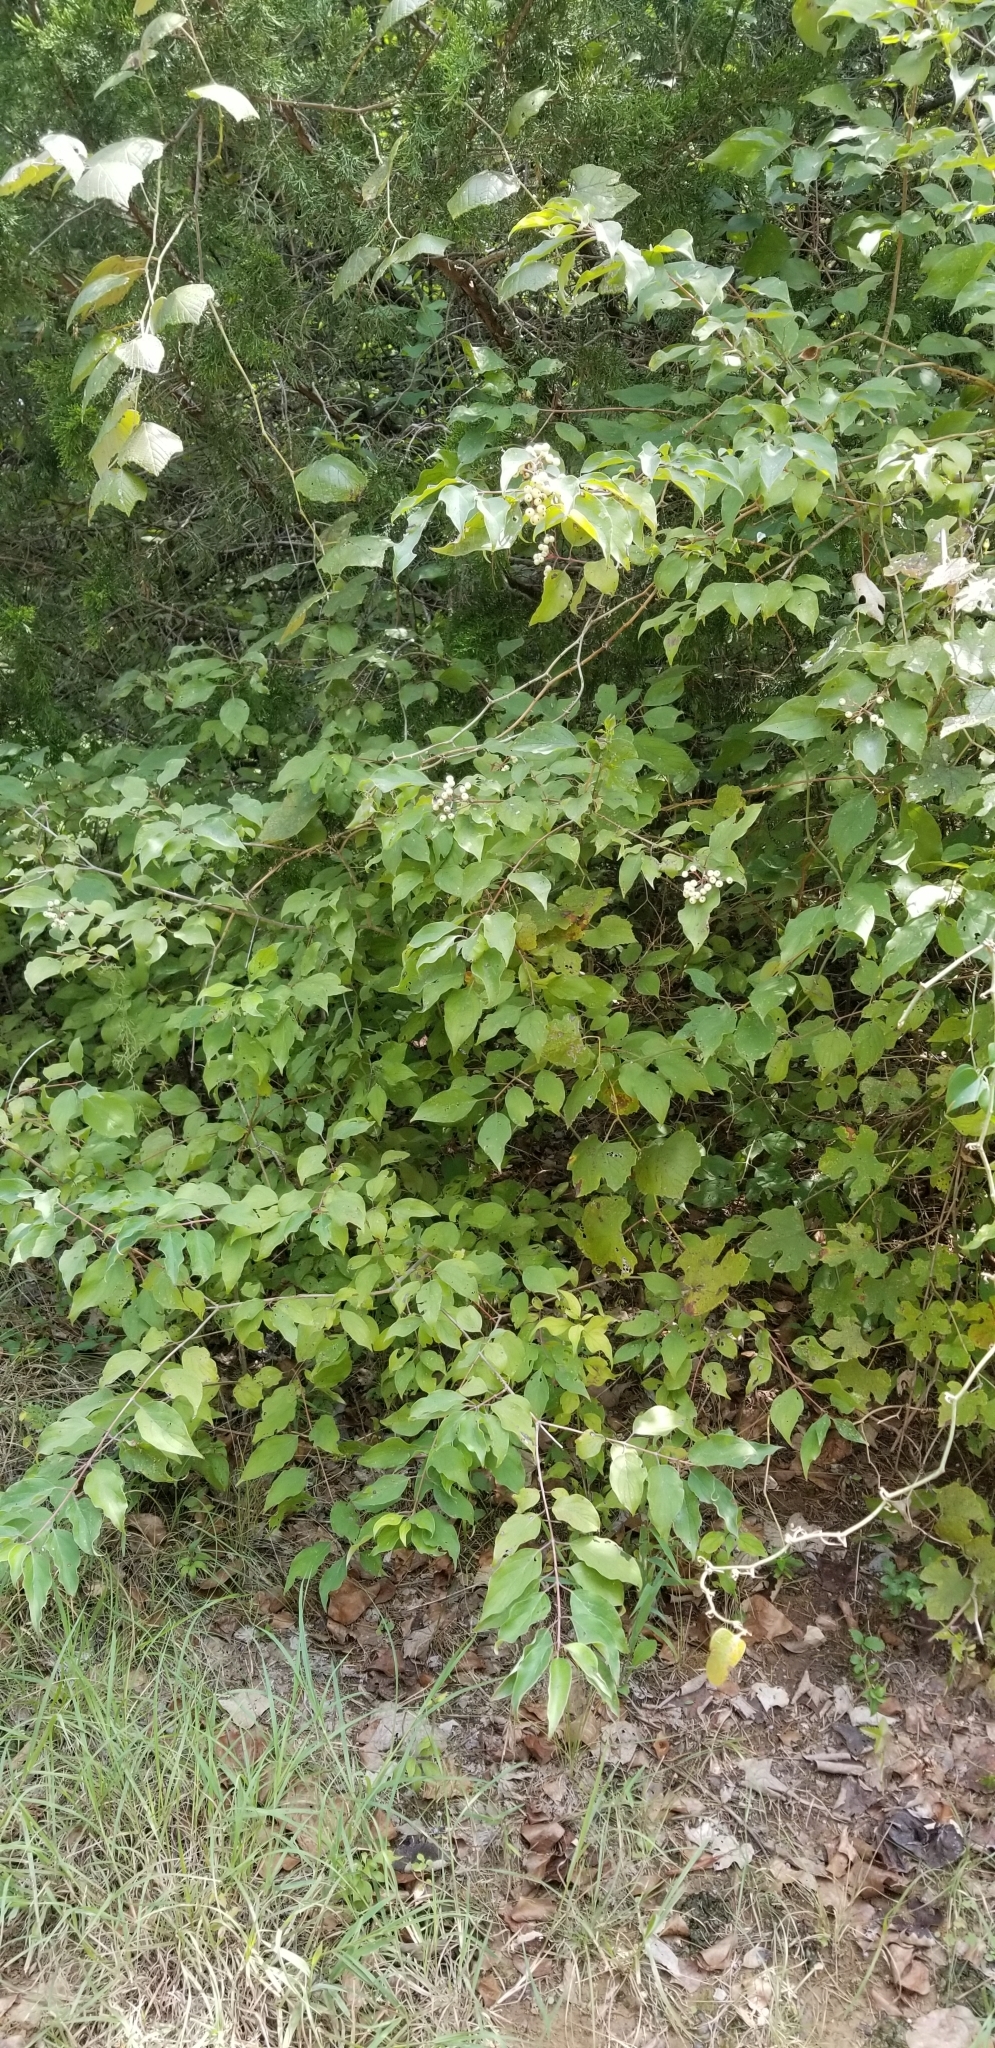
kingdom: Plantae
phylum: Tracheophyta
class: Magnoliopsida
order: Cornales
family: Cornaceae
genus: Cornus
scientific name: Cornus drummondii
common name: Rough-leaf dogwood
